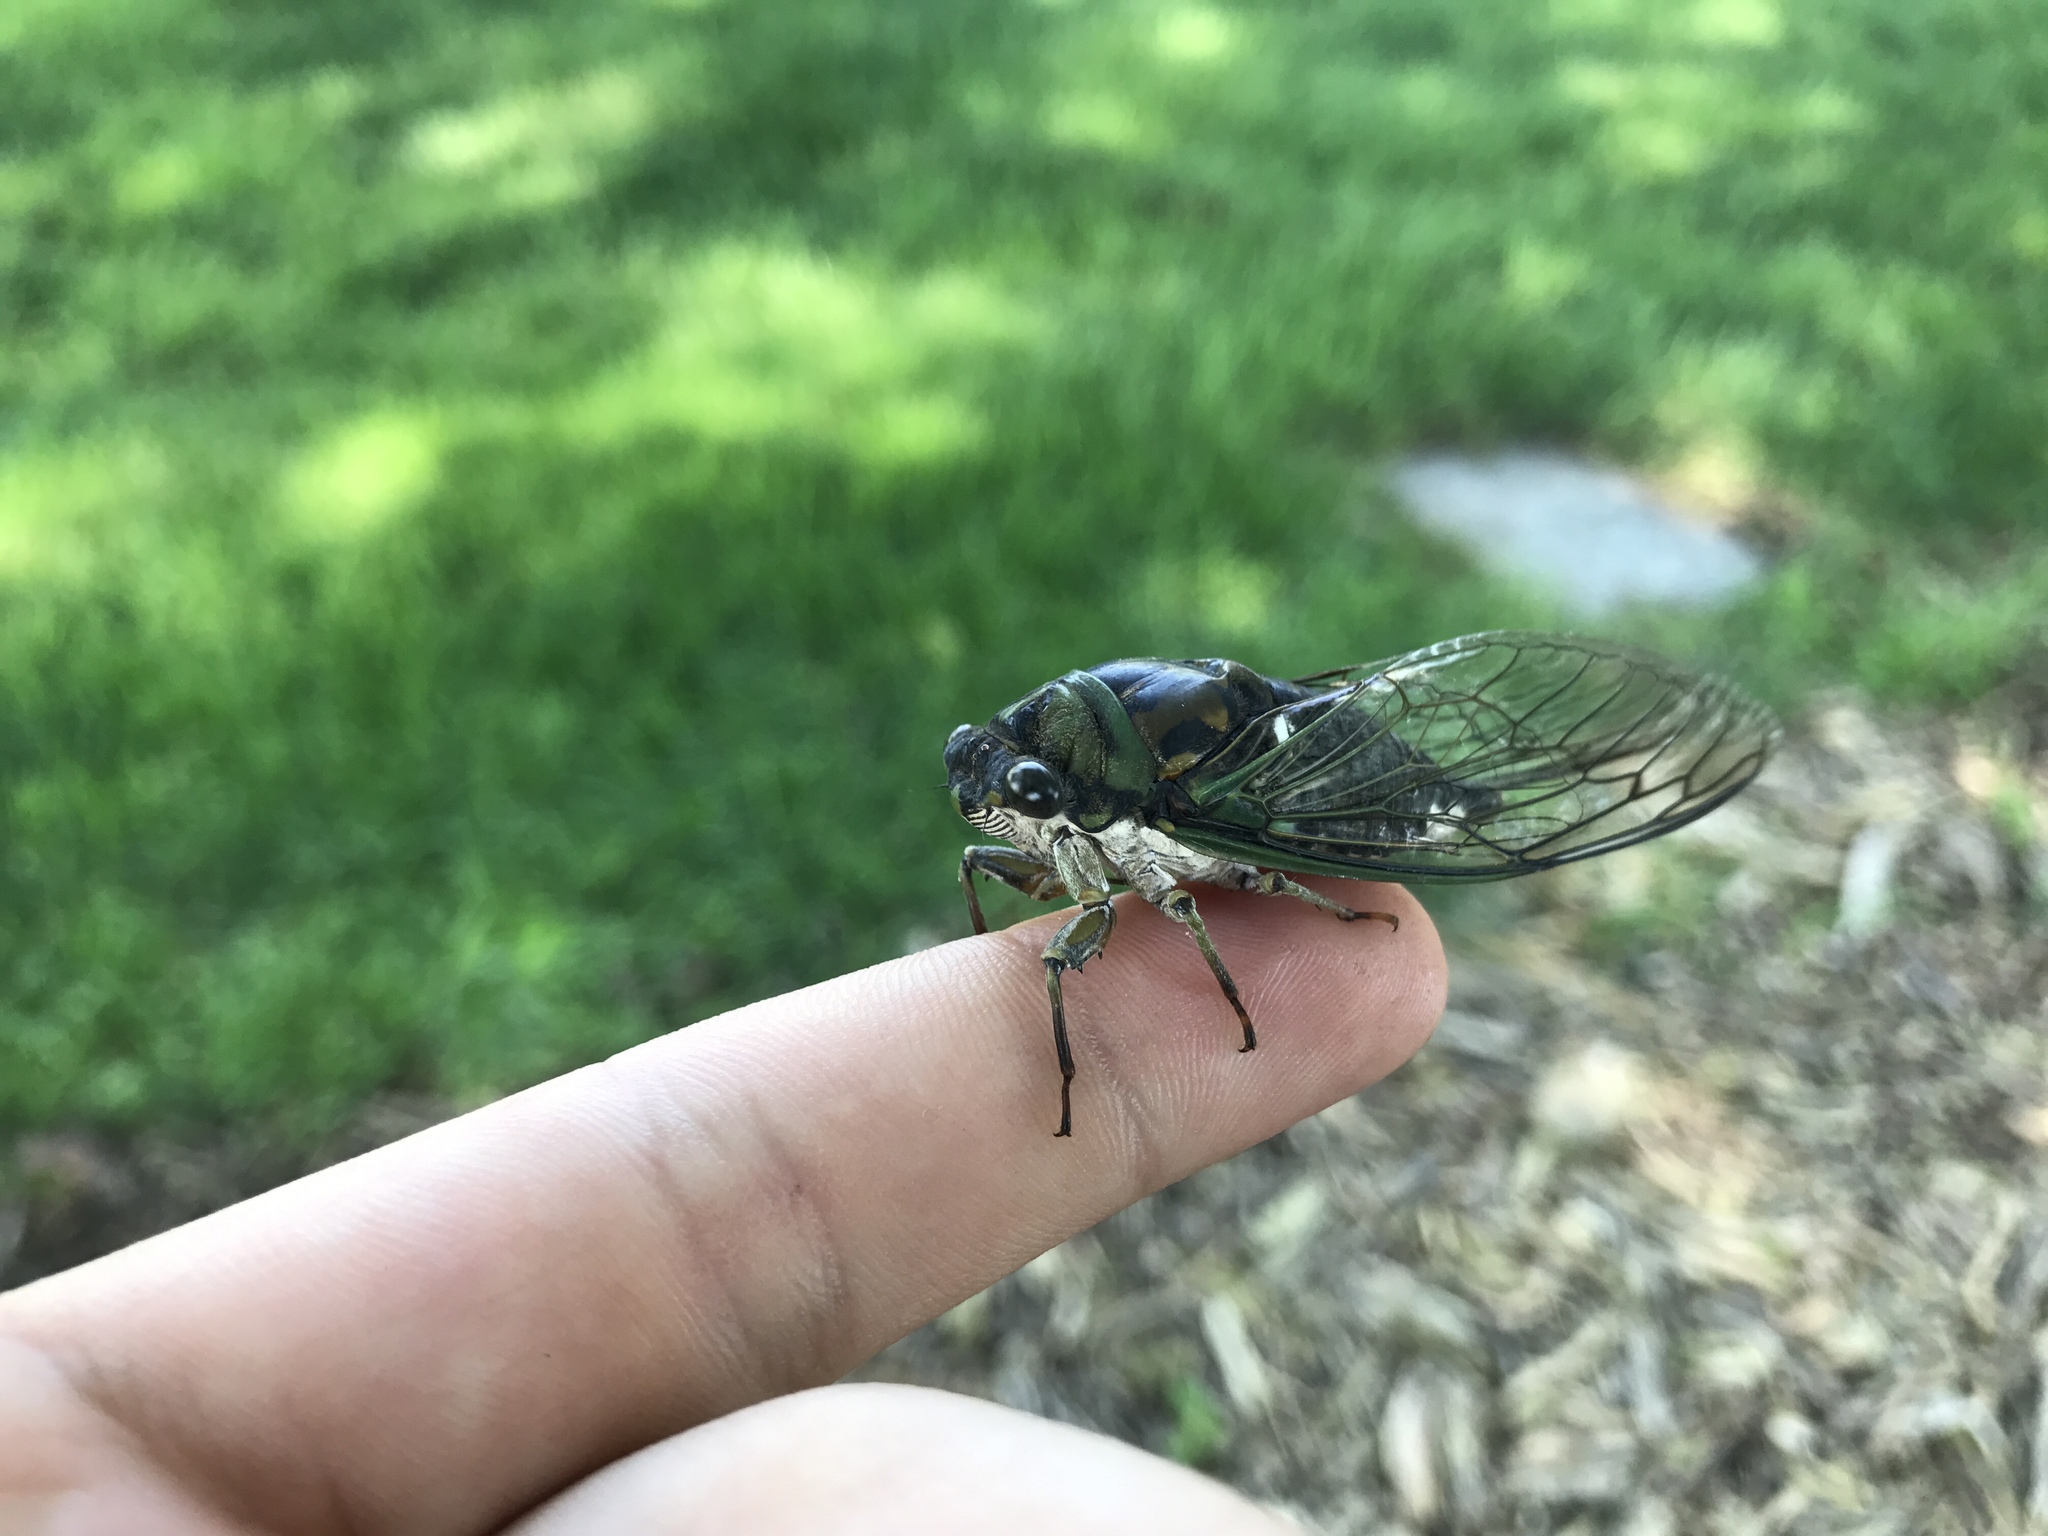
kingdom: Animalia
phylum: Arthropoda
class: Insecta
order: Hemiptera
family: Cicadidae
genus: Neotibicen
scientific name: Neotibicen linnei
